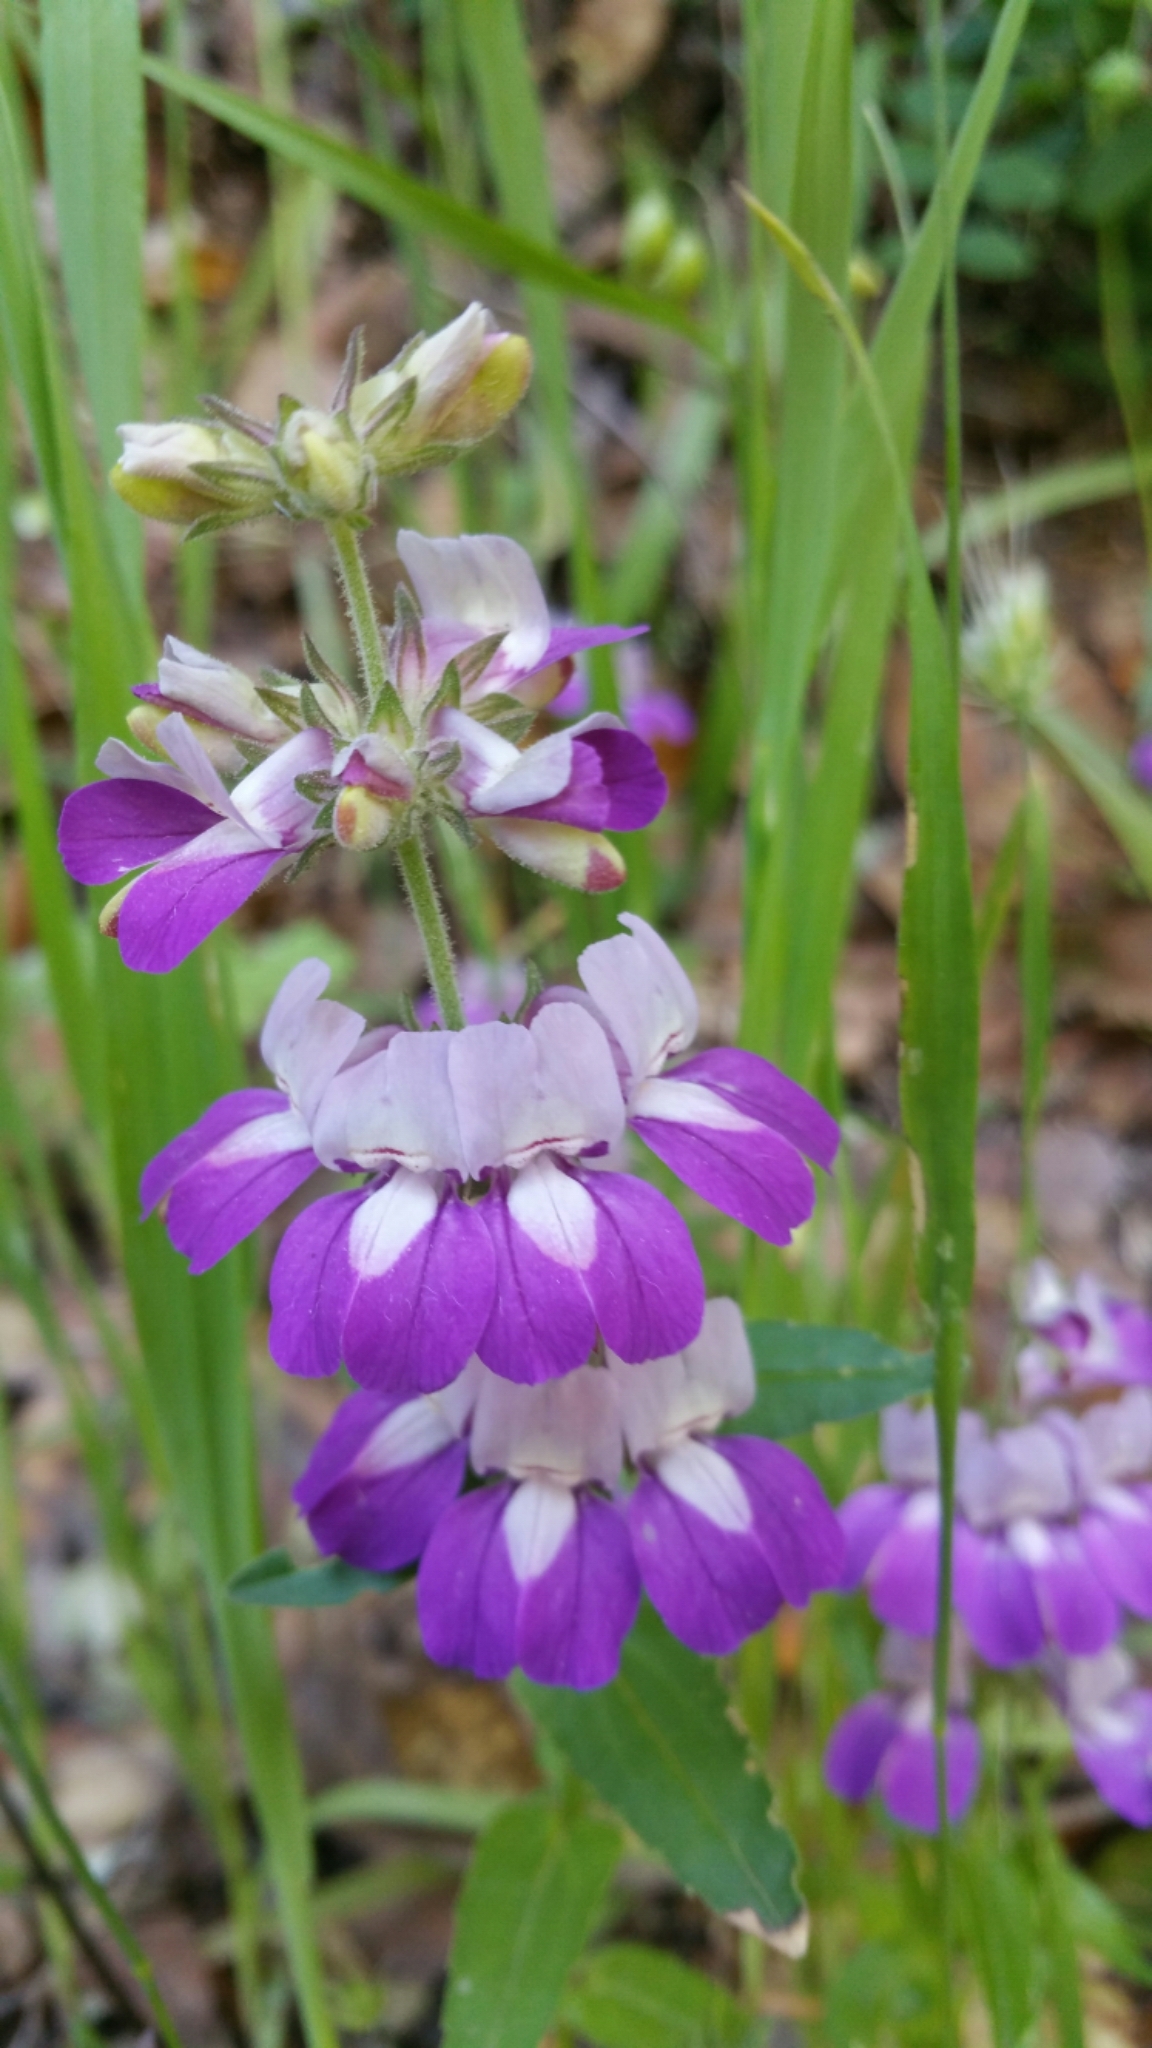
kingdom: Plantae
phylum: Tracheophyta
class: Magnoliopsida
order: Lamiales
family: Plantaginaceae
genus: Collinsia
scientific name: Collinsia heterophylla
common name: Chinese-houses
